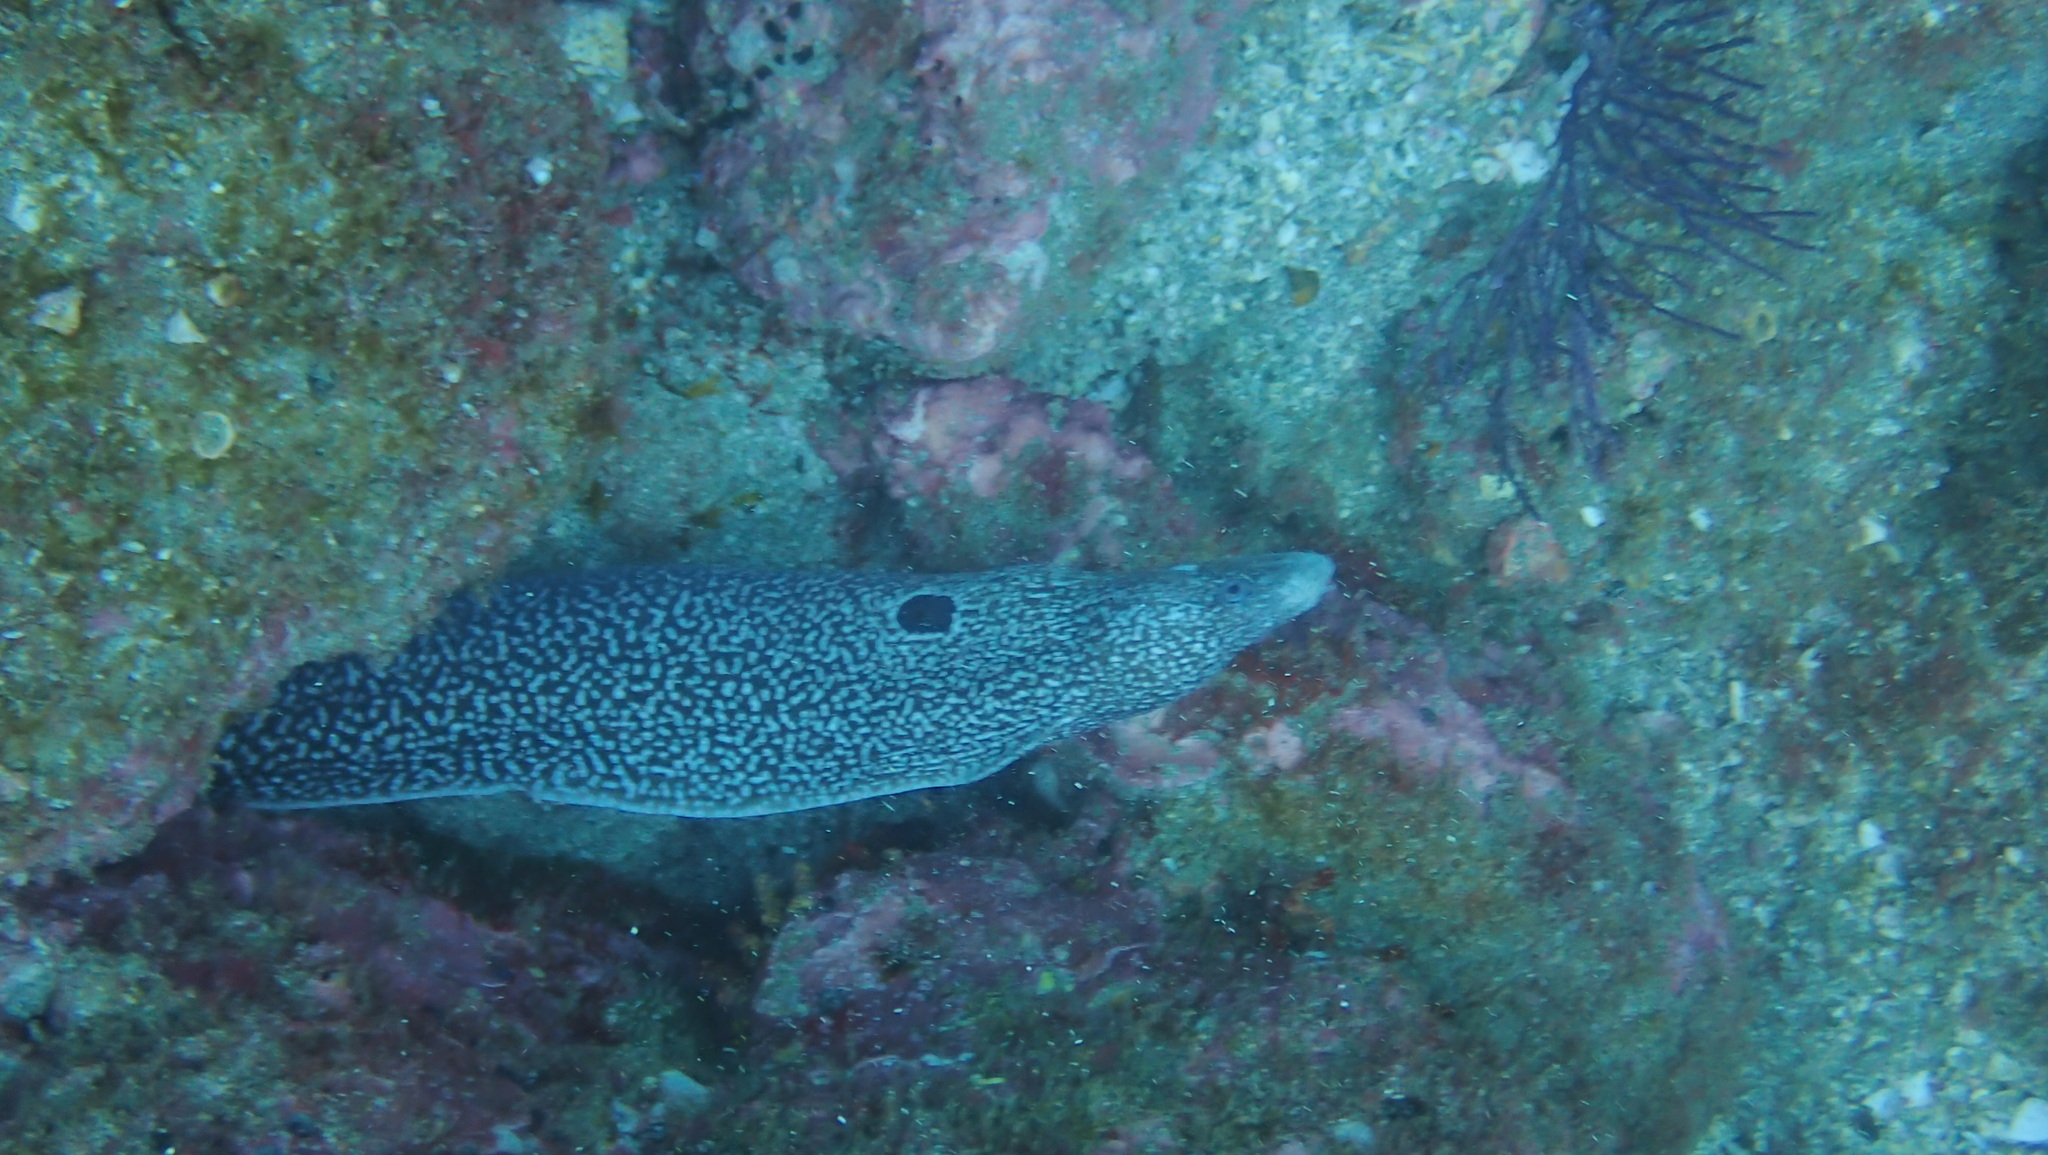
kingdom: Animalia
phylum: Chordata
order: Anguilliformes
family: Muraenidae
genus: Muraena
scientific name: Muraena clepsydra
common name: Hourglass moray
